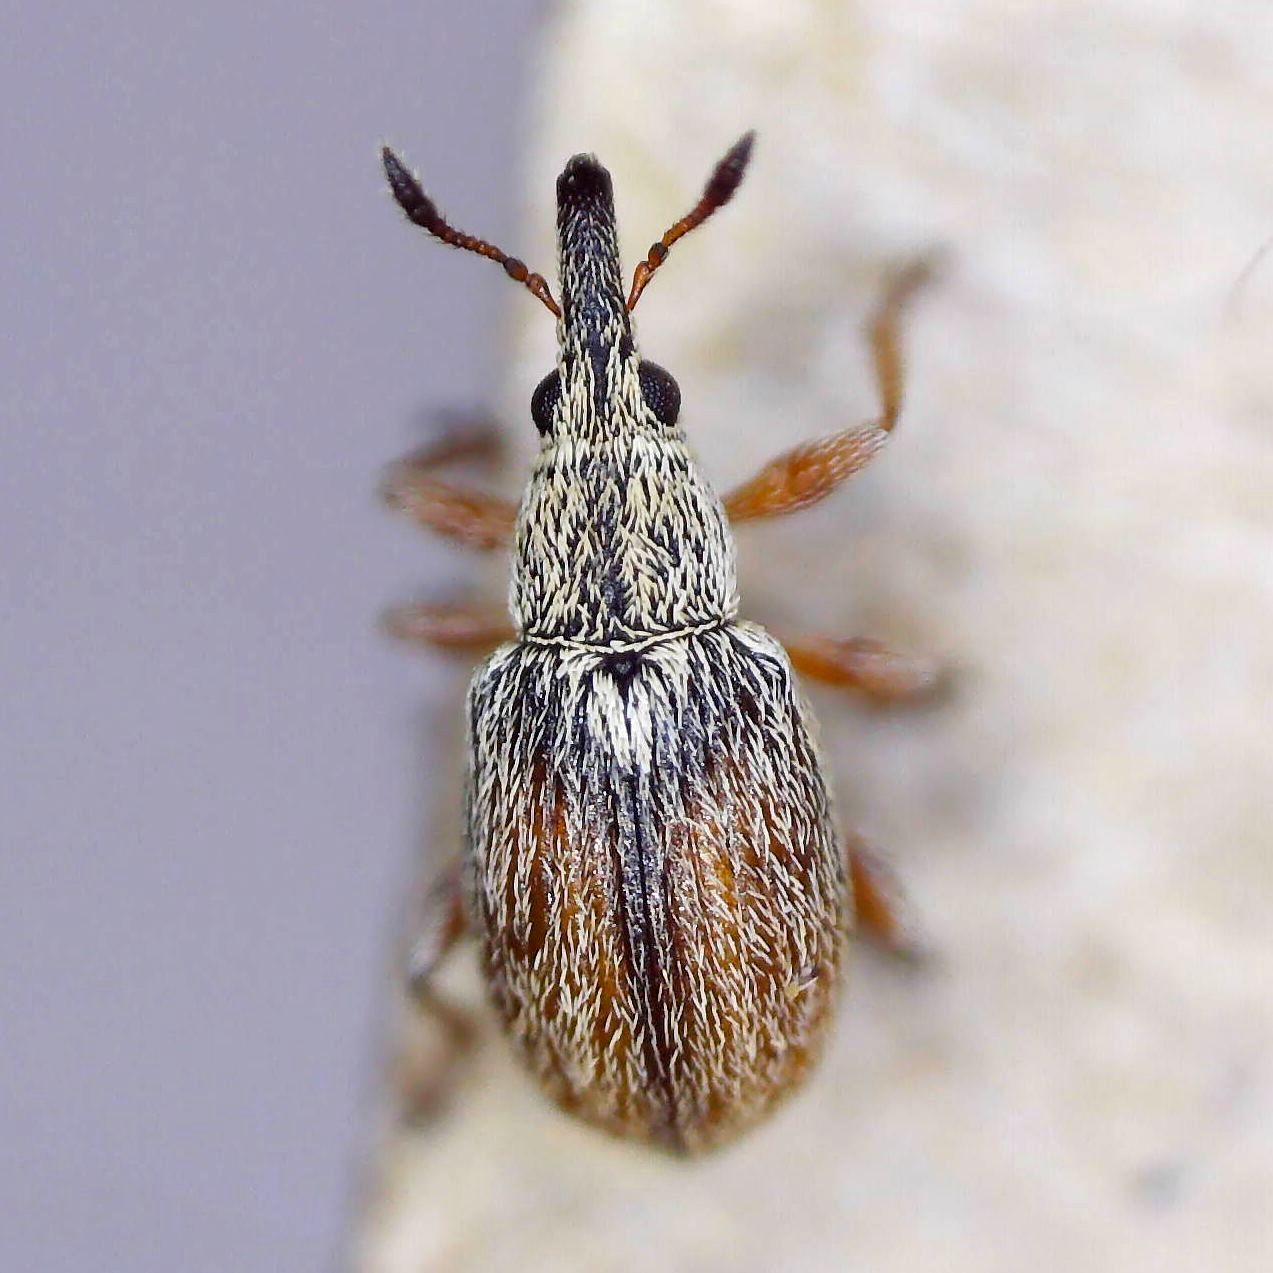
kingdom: Animalia
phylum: Arthropoda
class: Insecta
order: Coleoptera
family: Apionidae
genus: Malvapion
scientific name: Malvapion malvae
